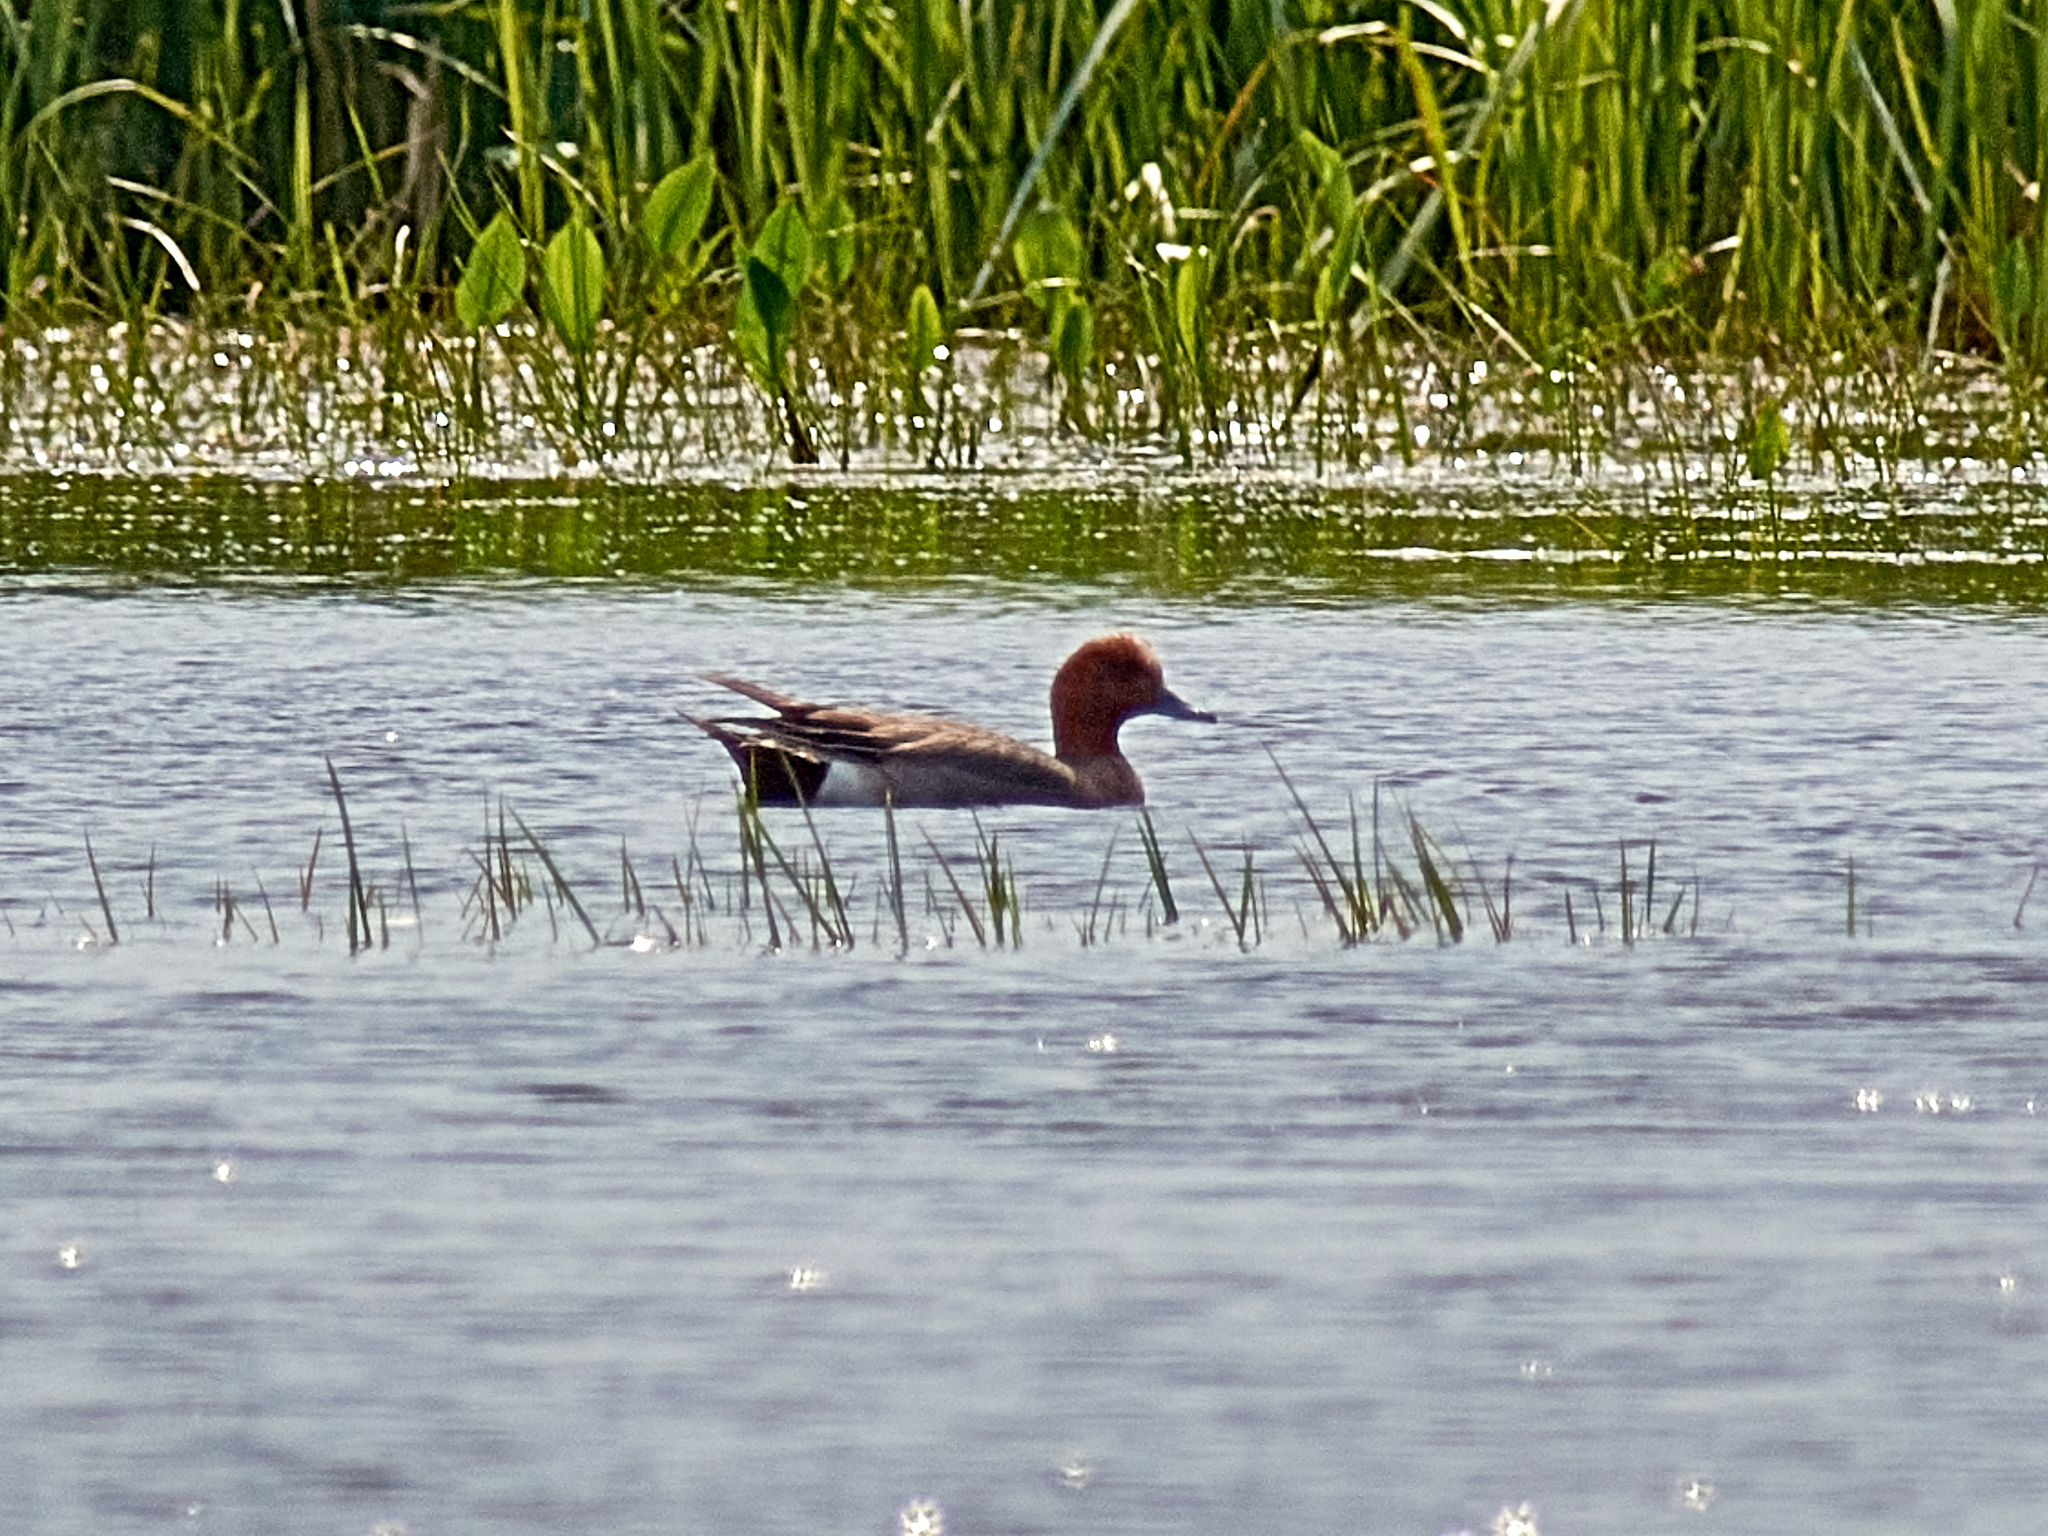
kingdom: Animalia
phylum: Chordata
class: Aves
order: Anseriformes
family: Anatidae
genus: Mareca
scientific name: Mareca penelope
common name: Eurasian wigeon
